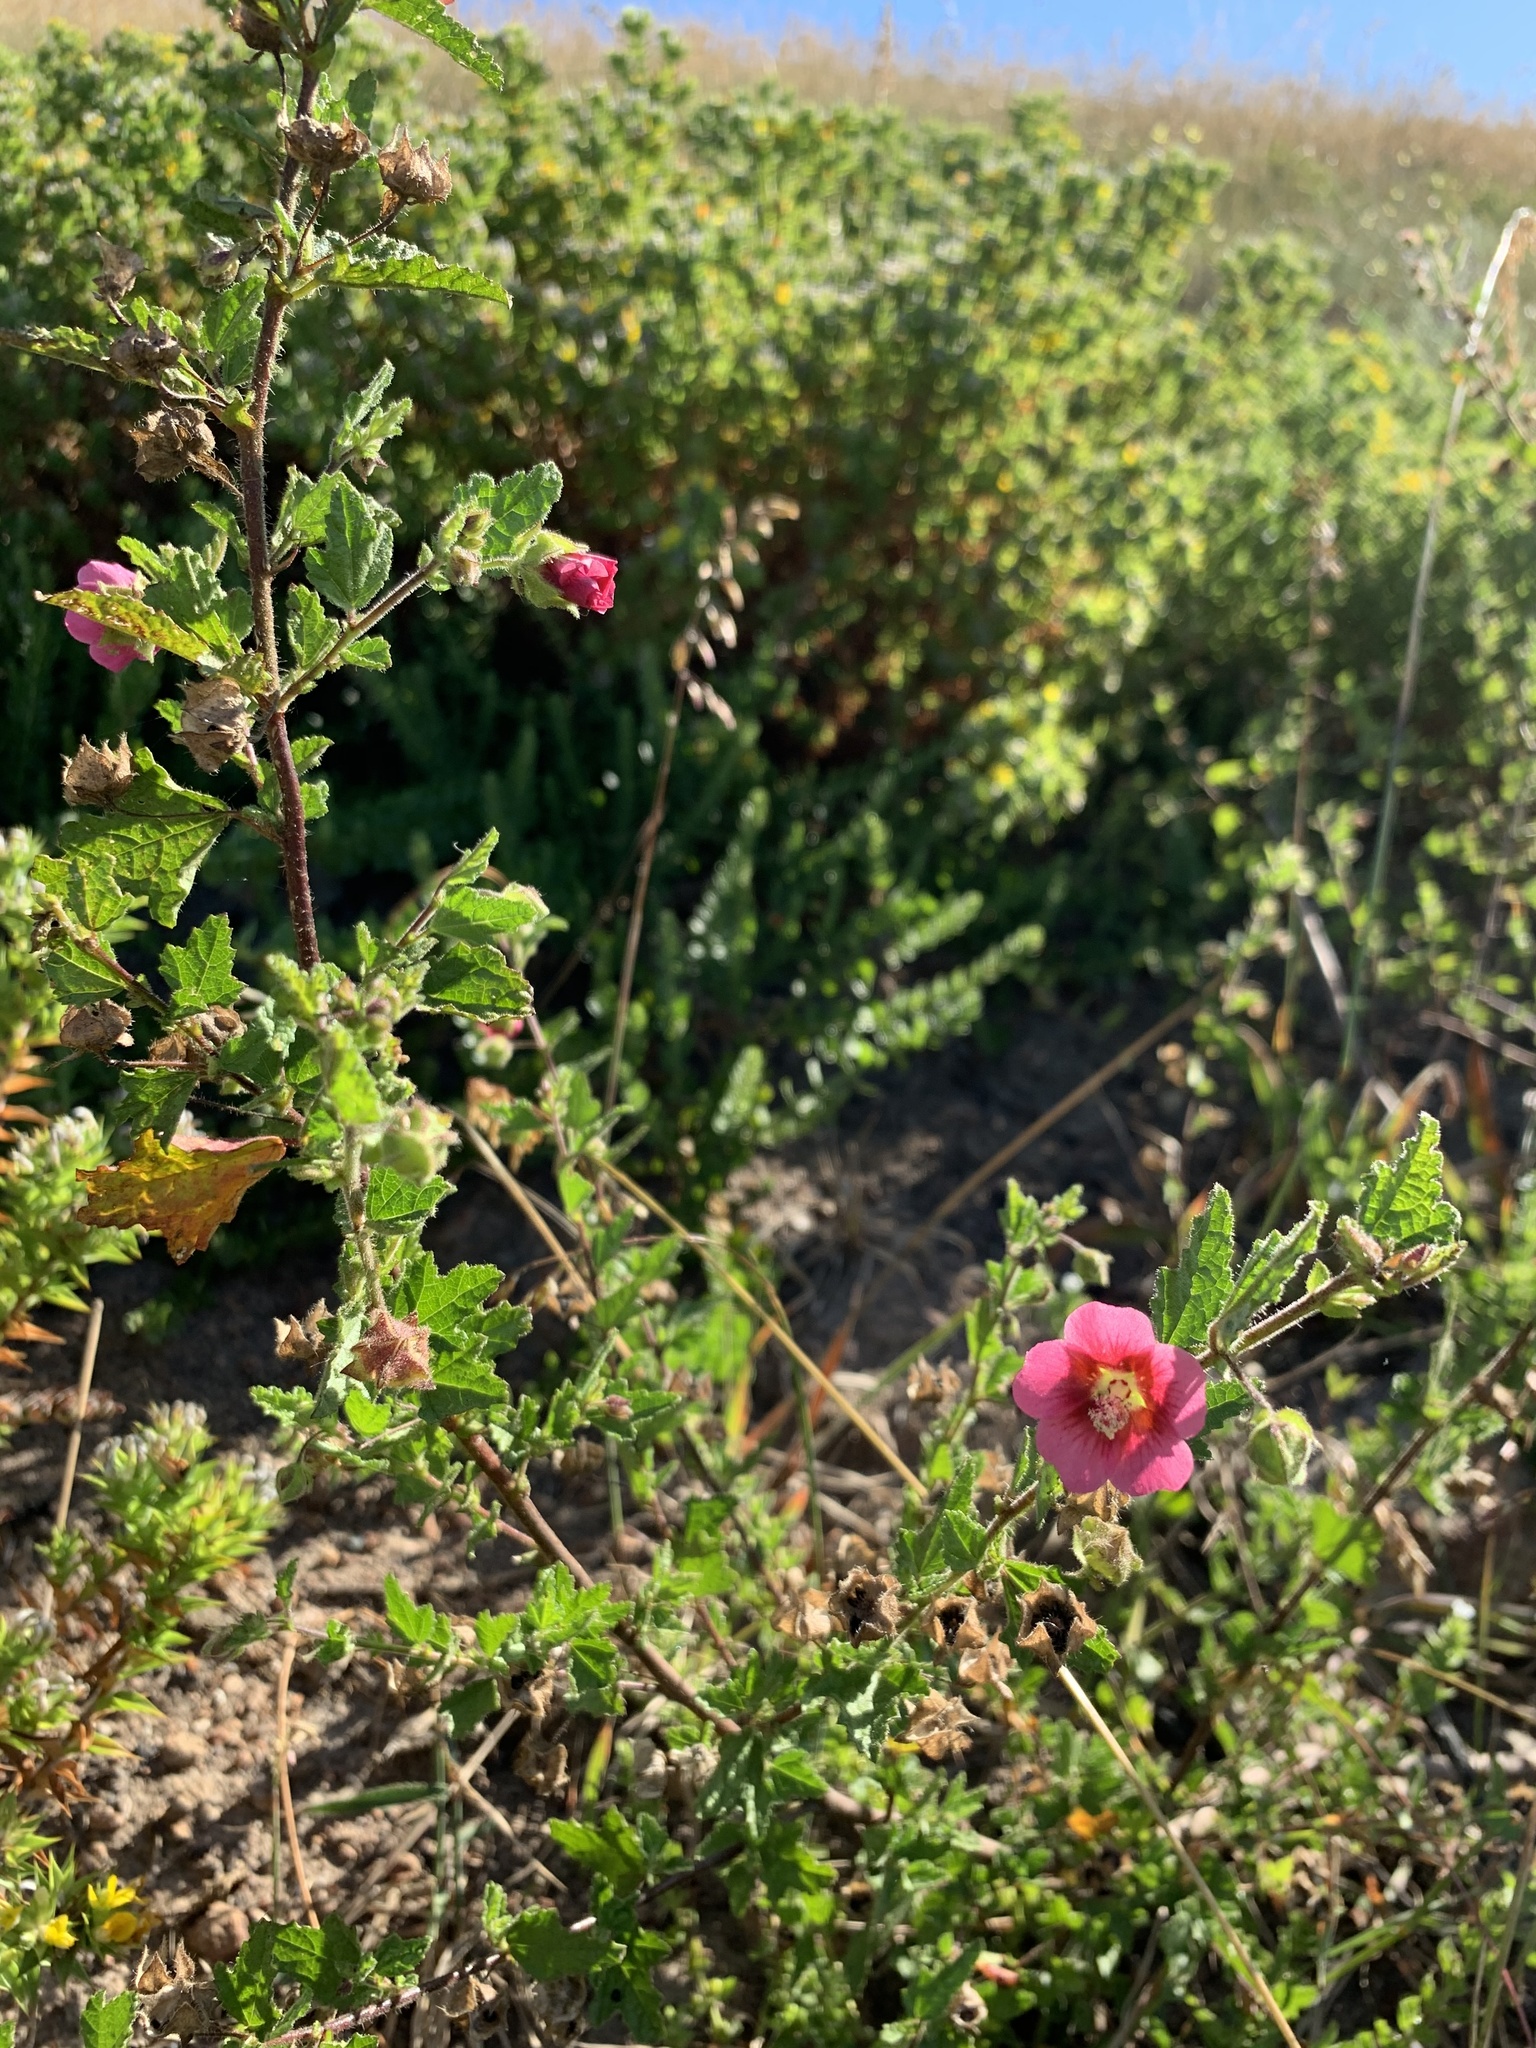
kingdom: Plantae
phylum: Tracheophyta
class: Magnoliopsida
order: Malvales
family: Malvaceae
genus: Anisodontea
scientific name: Anisodontea scabrosa
